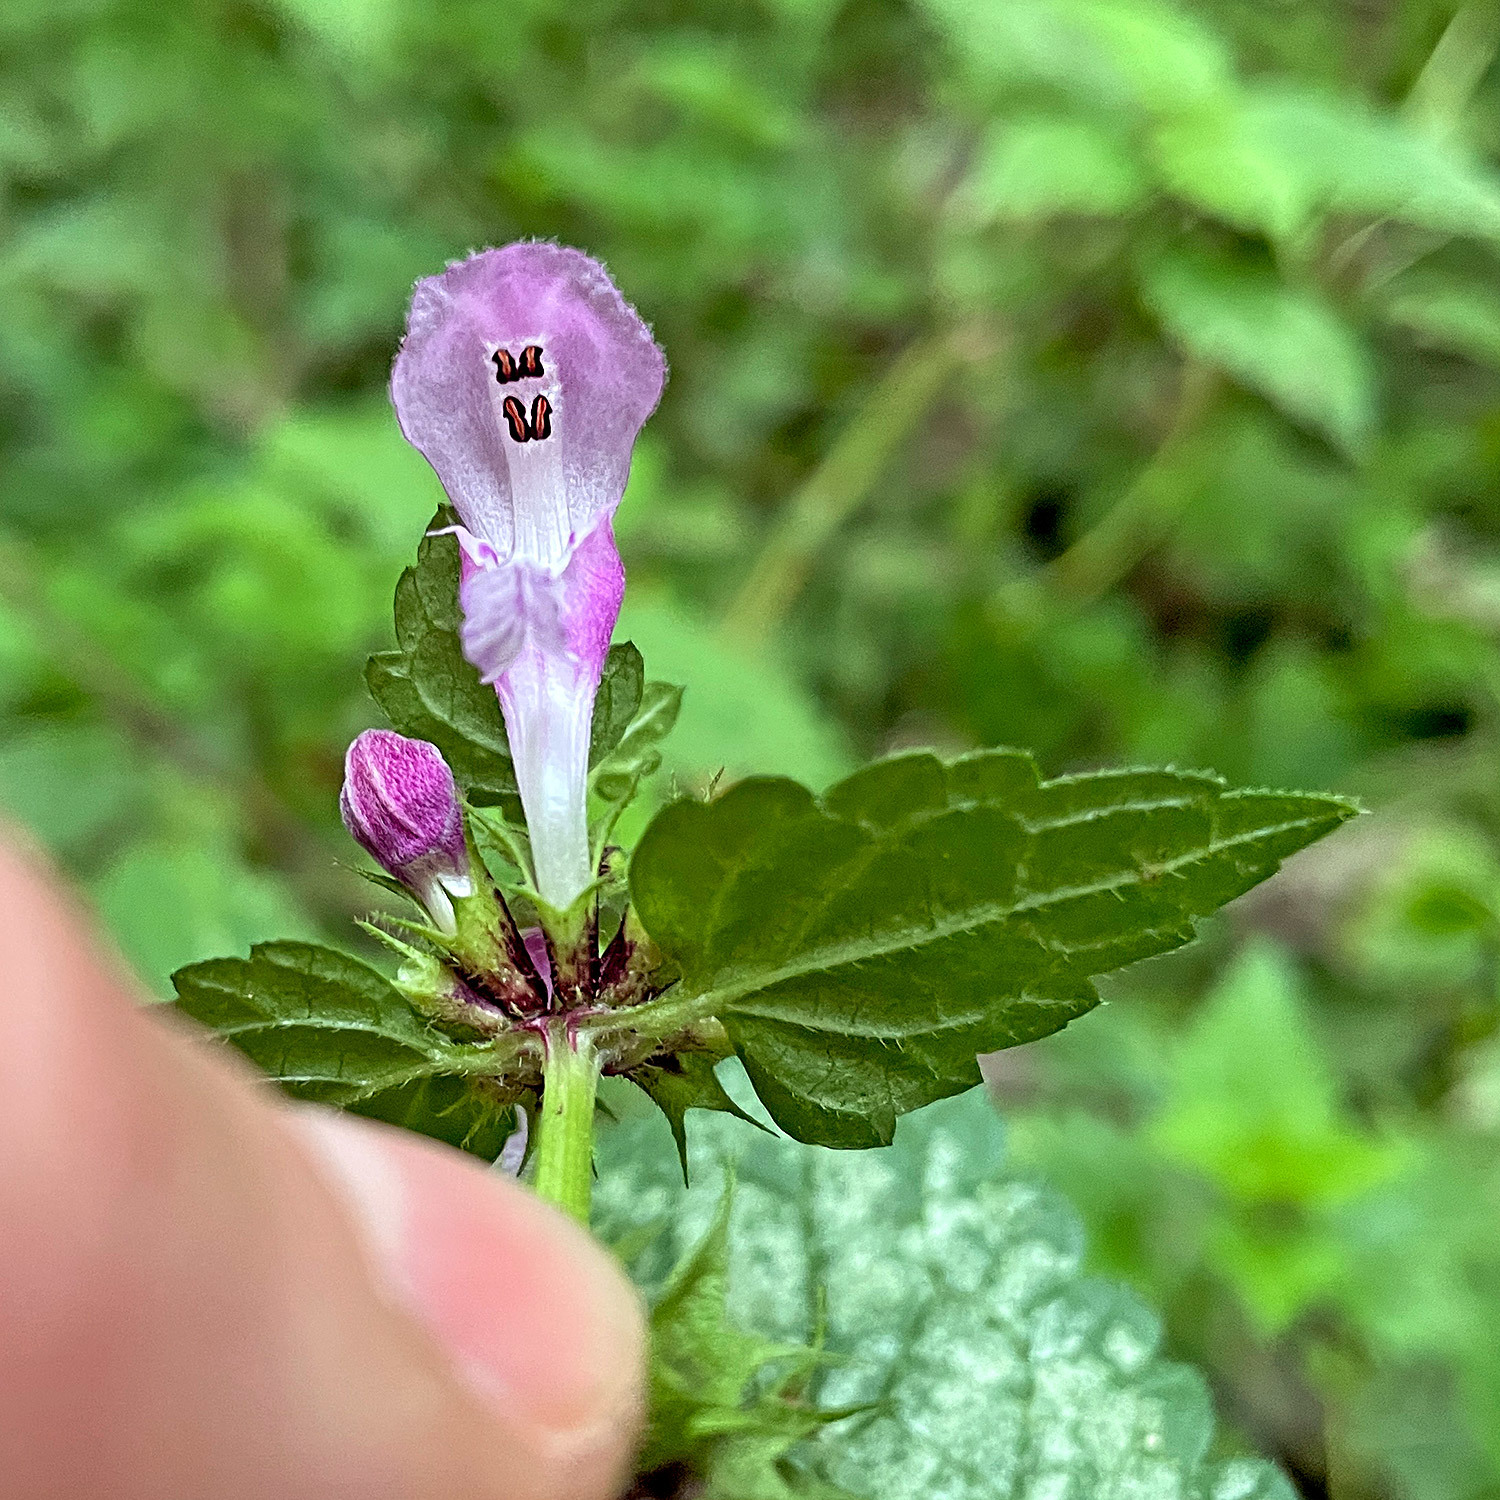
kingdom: Plantae
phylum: Tracheophyta
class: Magnoliopsida
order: Lamiales
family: Lamiaceae
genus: Lamium
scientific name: Lamium maculatum
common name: Spotted dead-nettle
